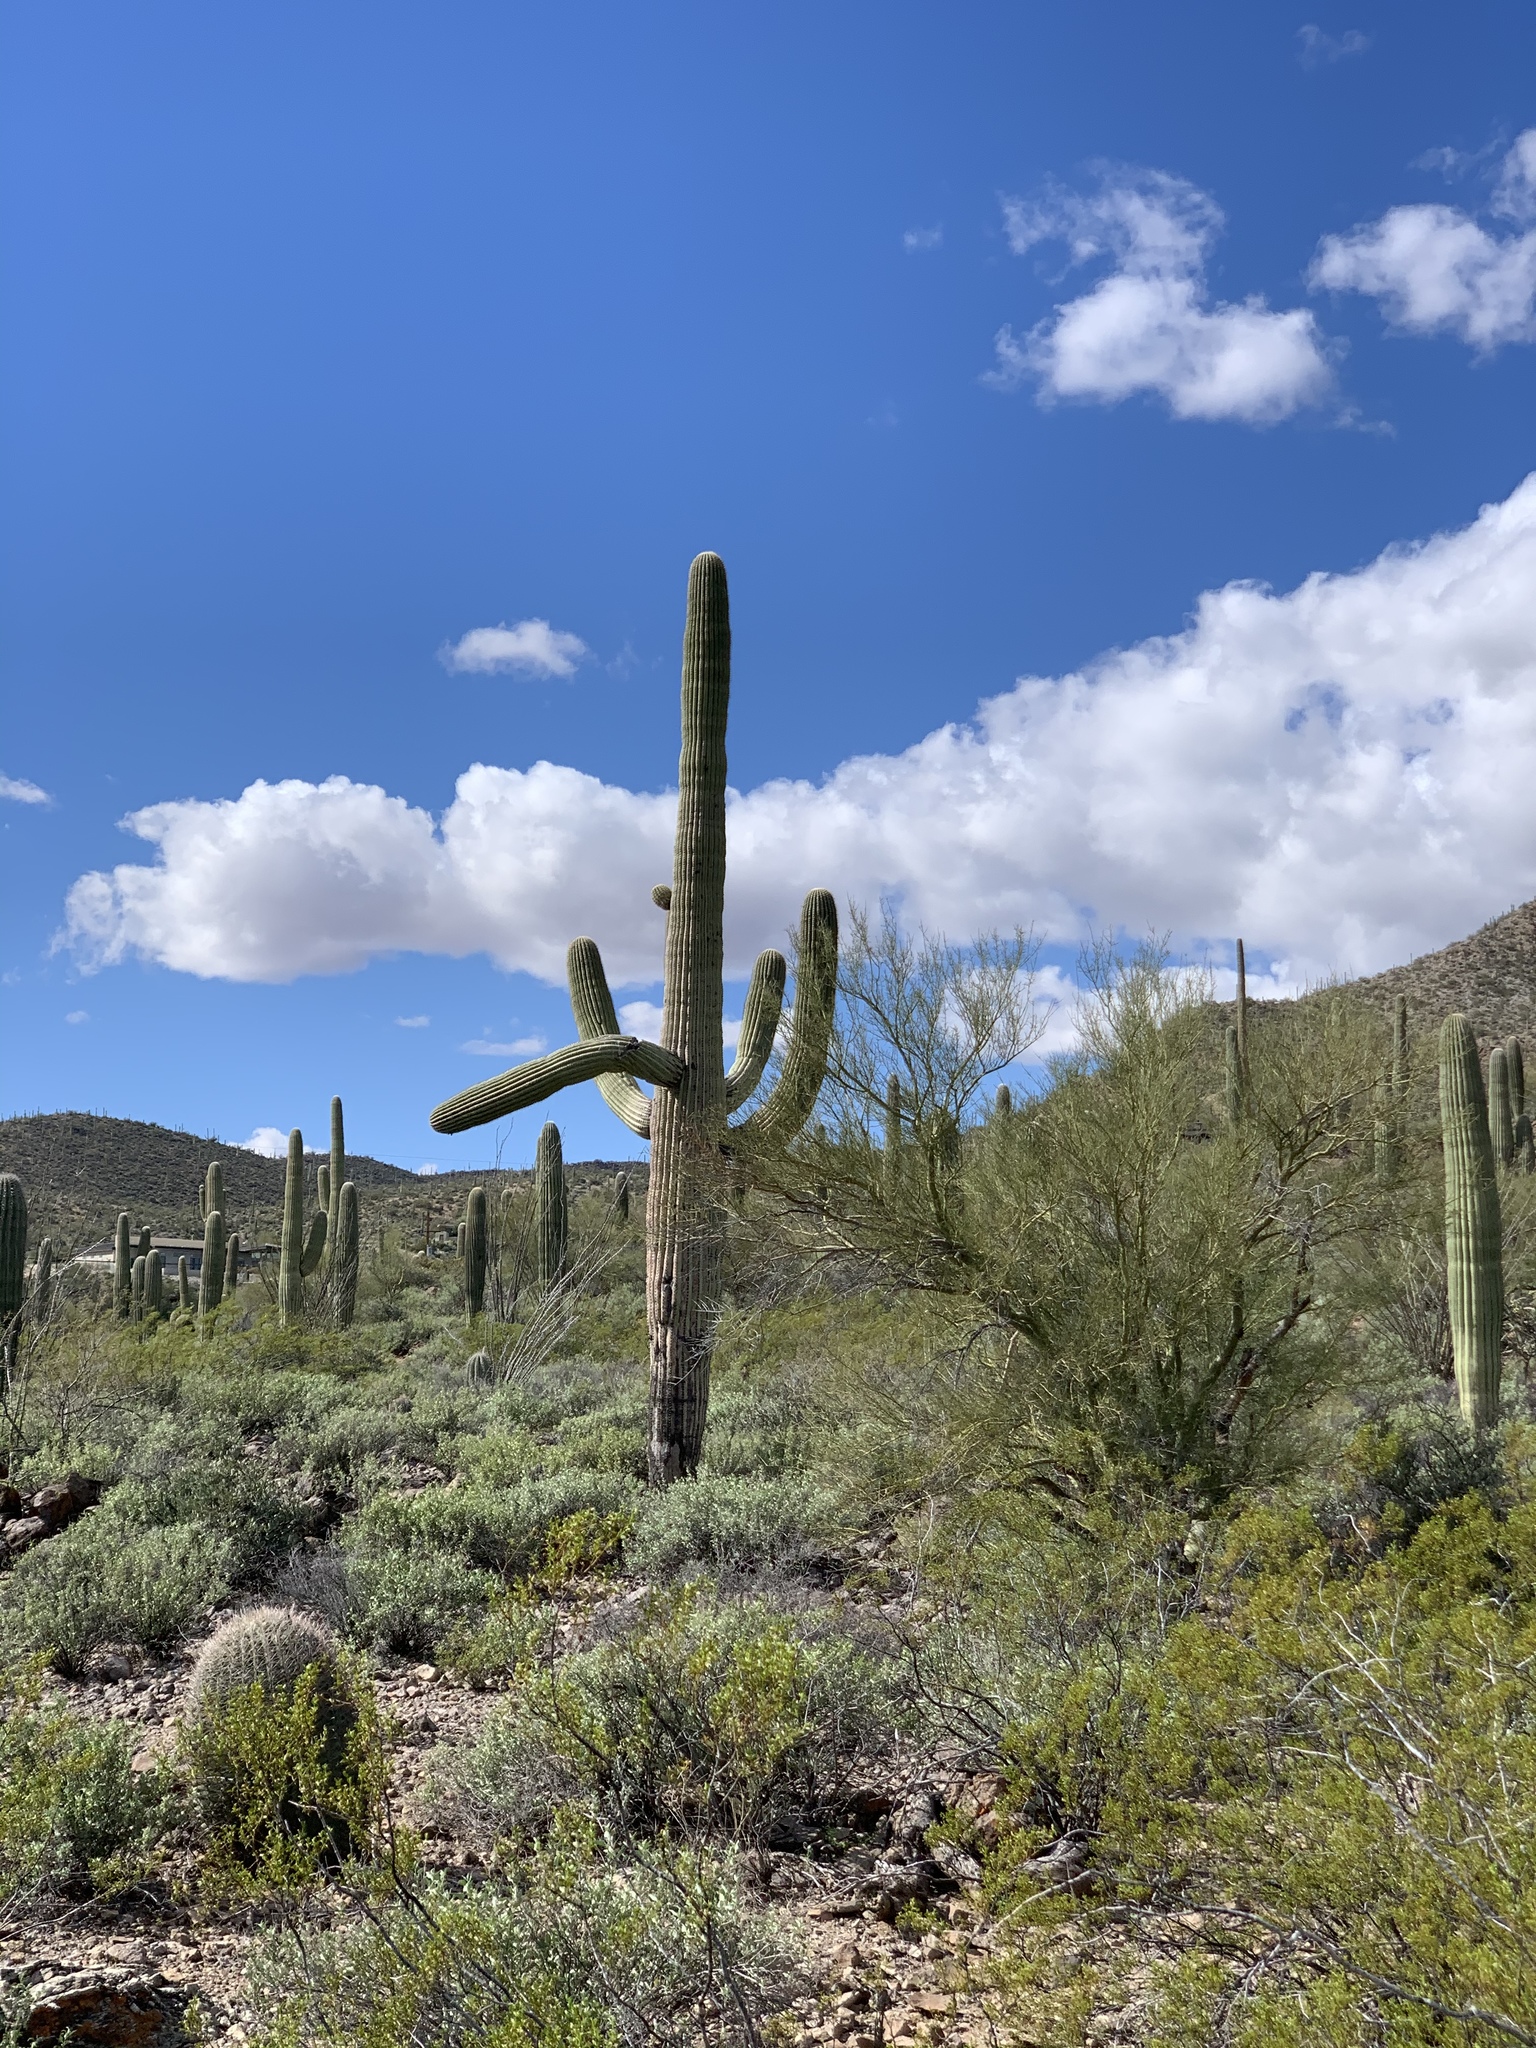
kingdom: Plantae
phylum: Tracheophyta
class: Magnoliopsida
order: Caryophyllales
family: Cactaceae
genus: Carnegiea
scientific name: Carnegiea gigantea
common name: Saguaro
